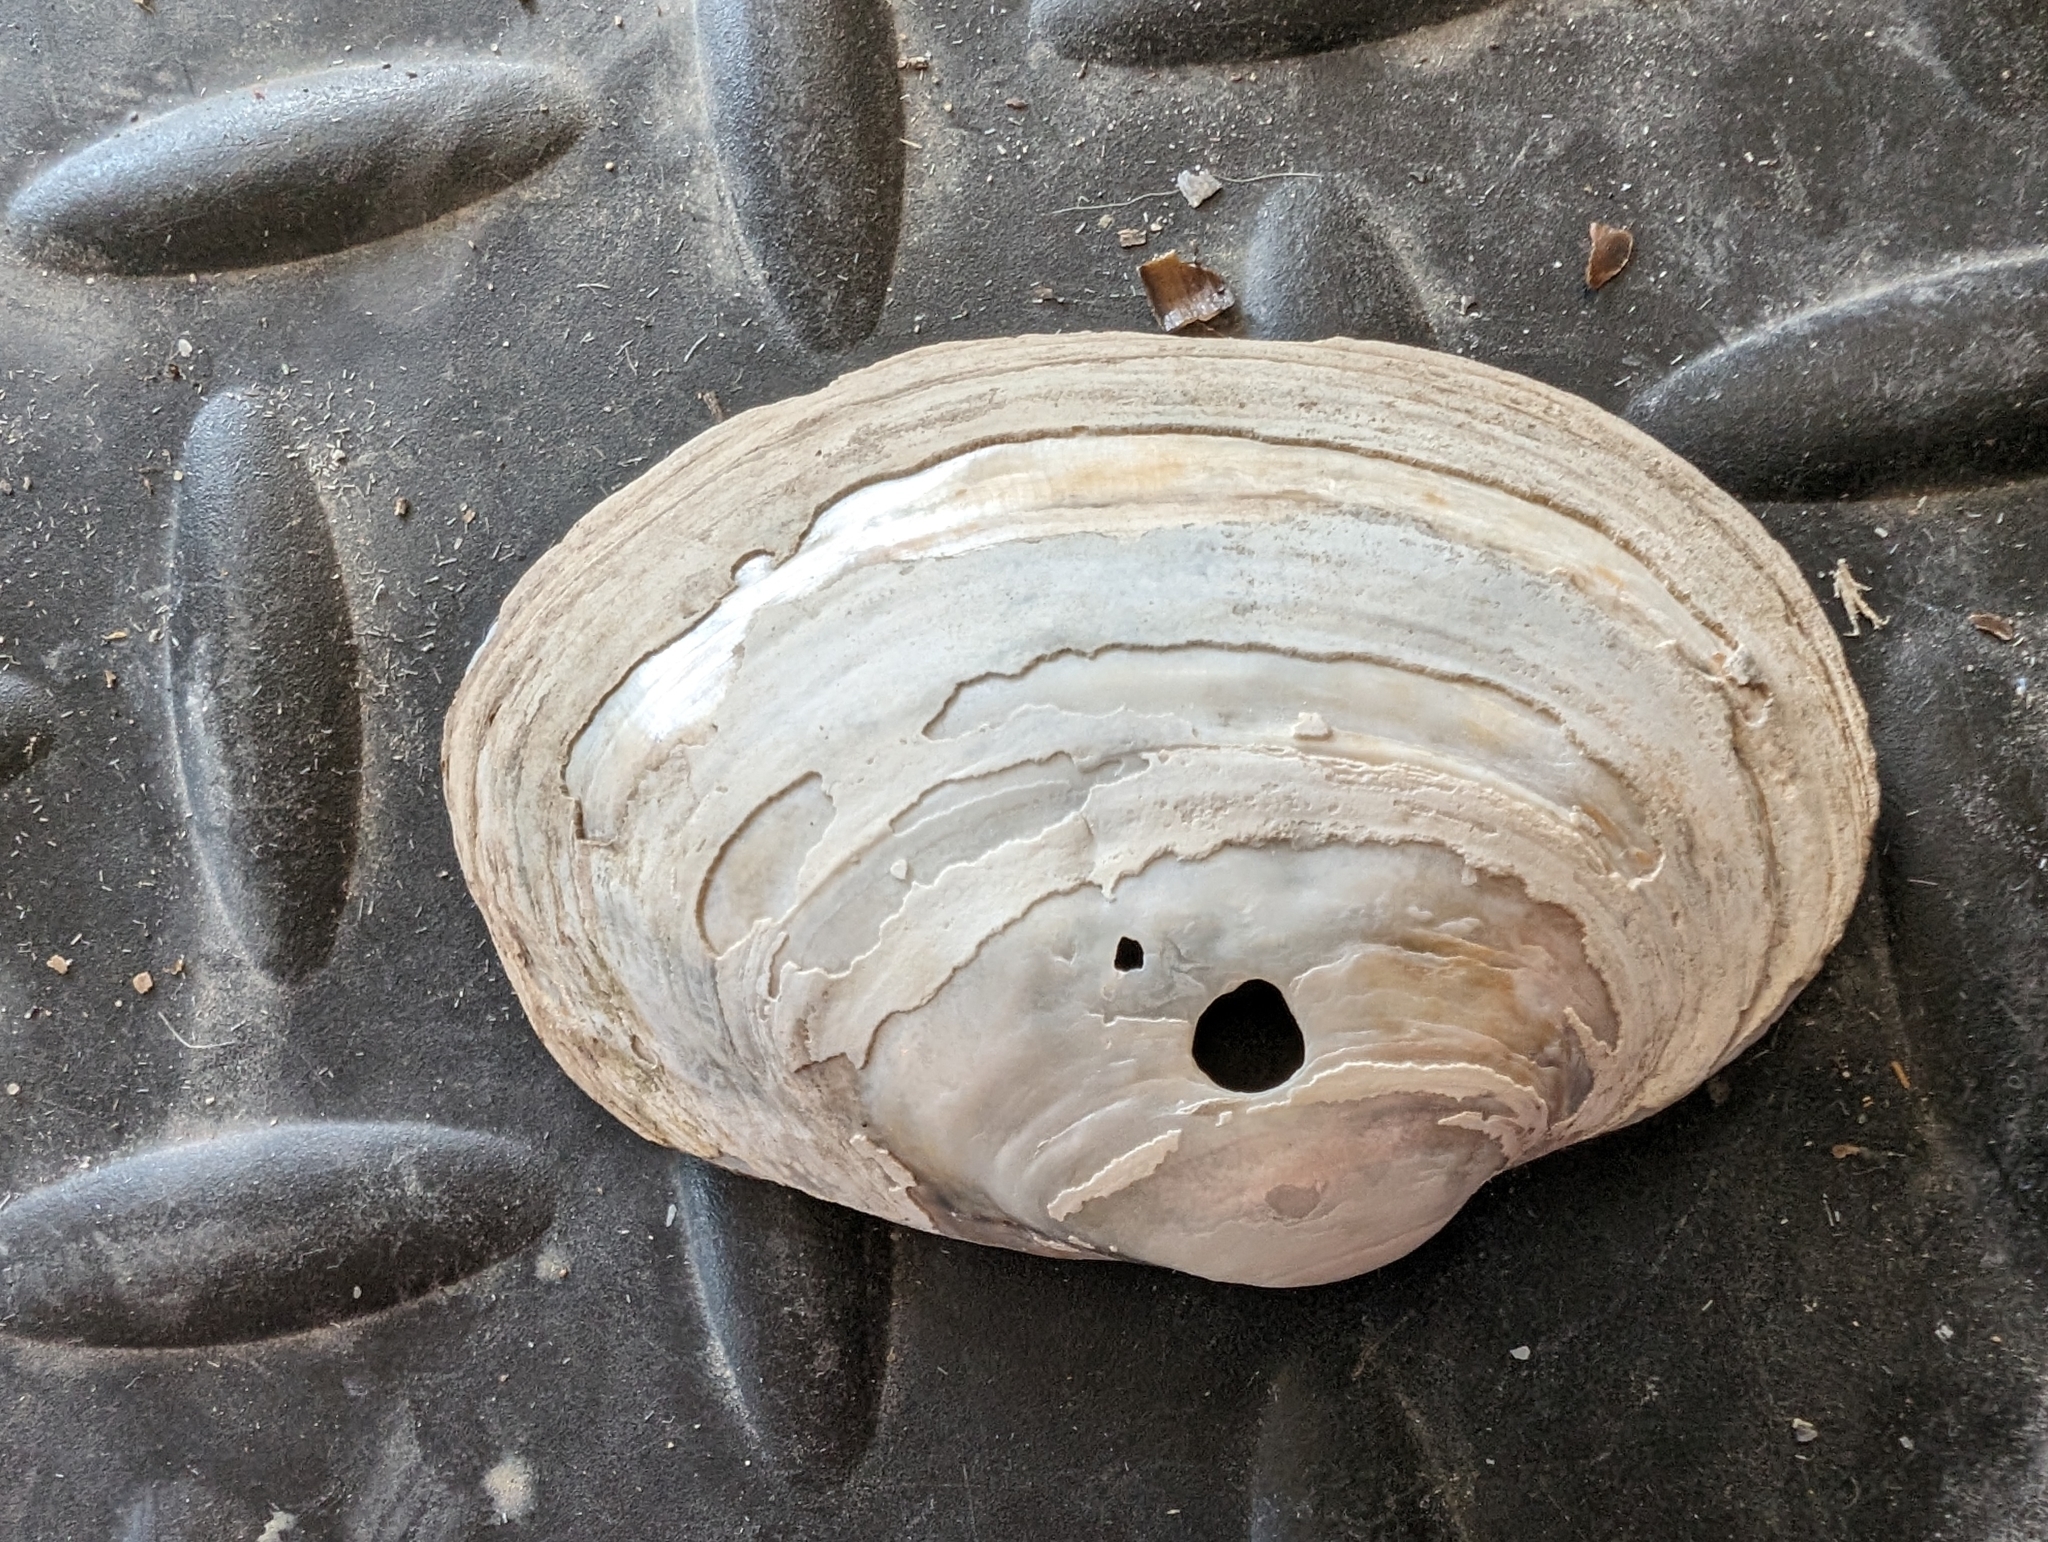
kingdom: Animalia
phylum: Mollusca
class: Bivalvia
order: Unionida
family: Unionidae
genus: Lampsilis
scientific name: Lampsilis cardium
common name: Plain pocketbook
